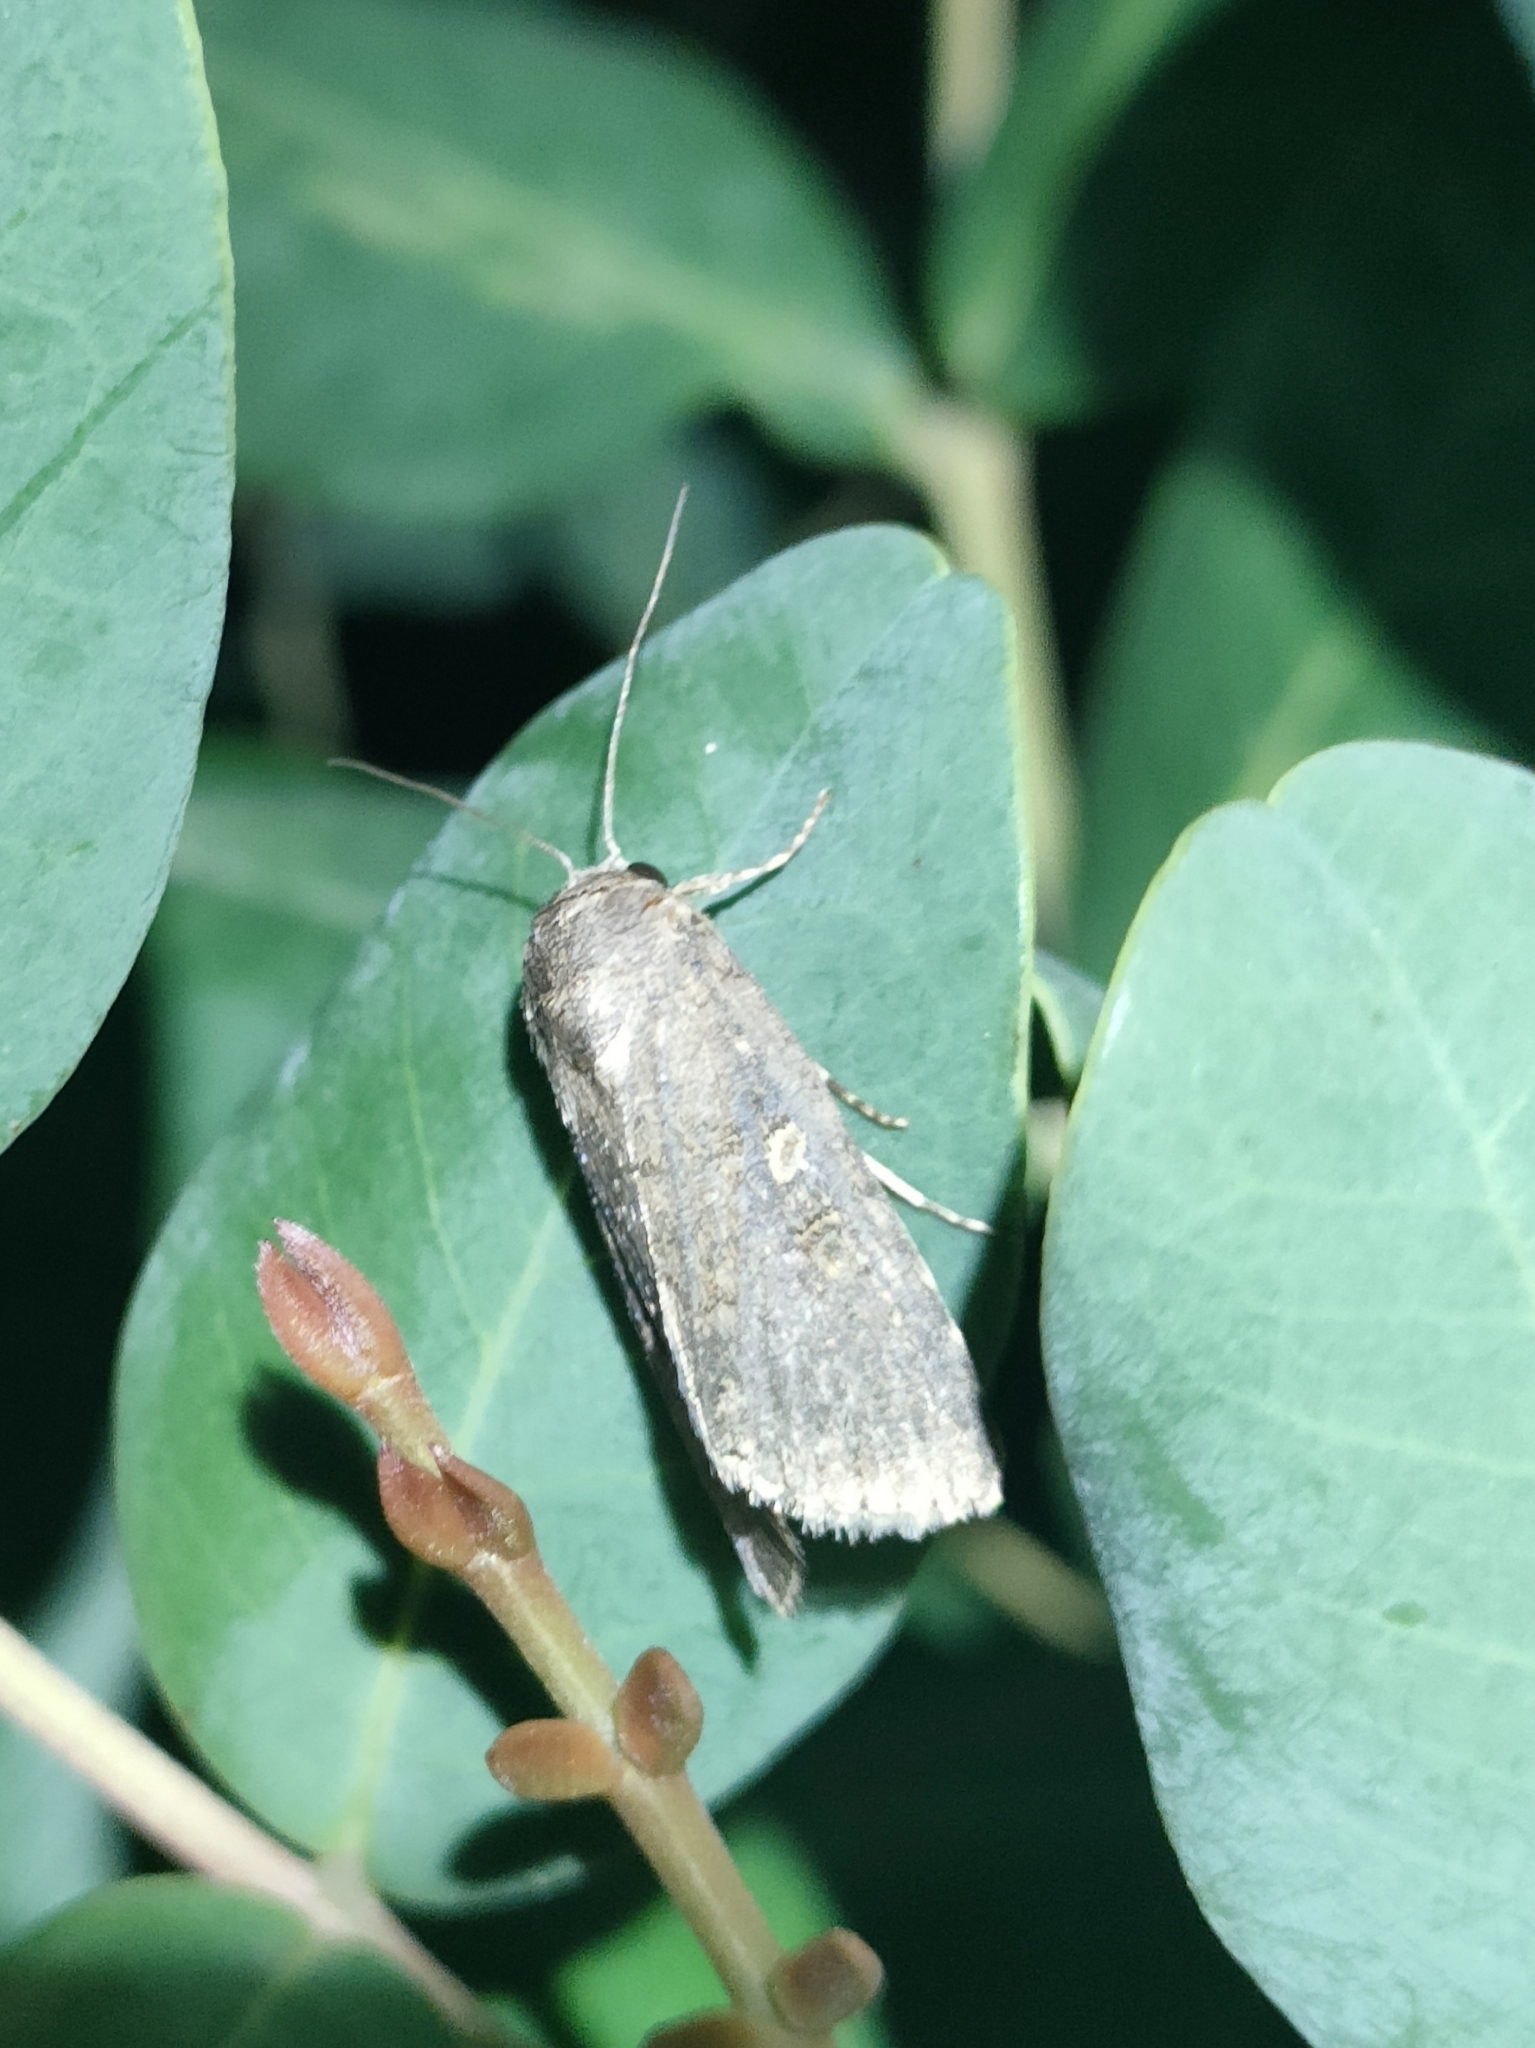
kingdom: Animalia
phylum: Arthropoda
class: Insecta
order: Lepidoptera
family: Noctuidae
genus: Spodoptera
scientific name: Spodoptera cilium
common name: Dark mottled willow
